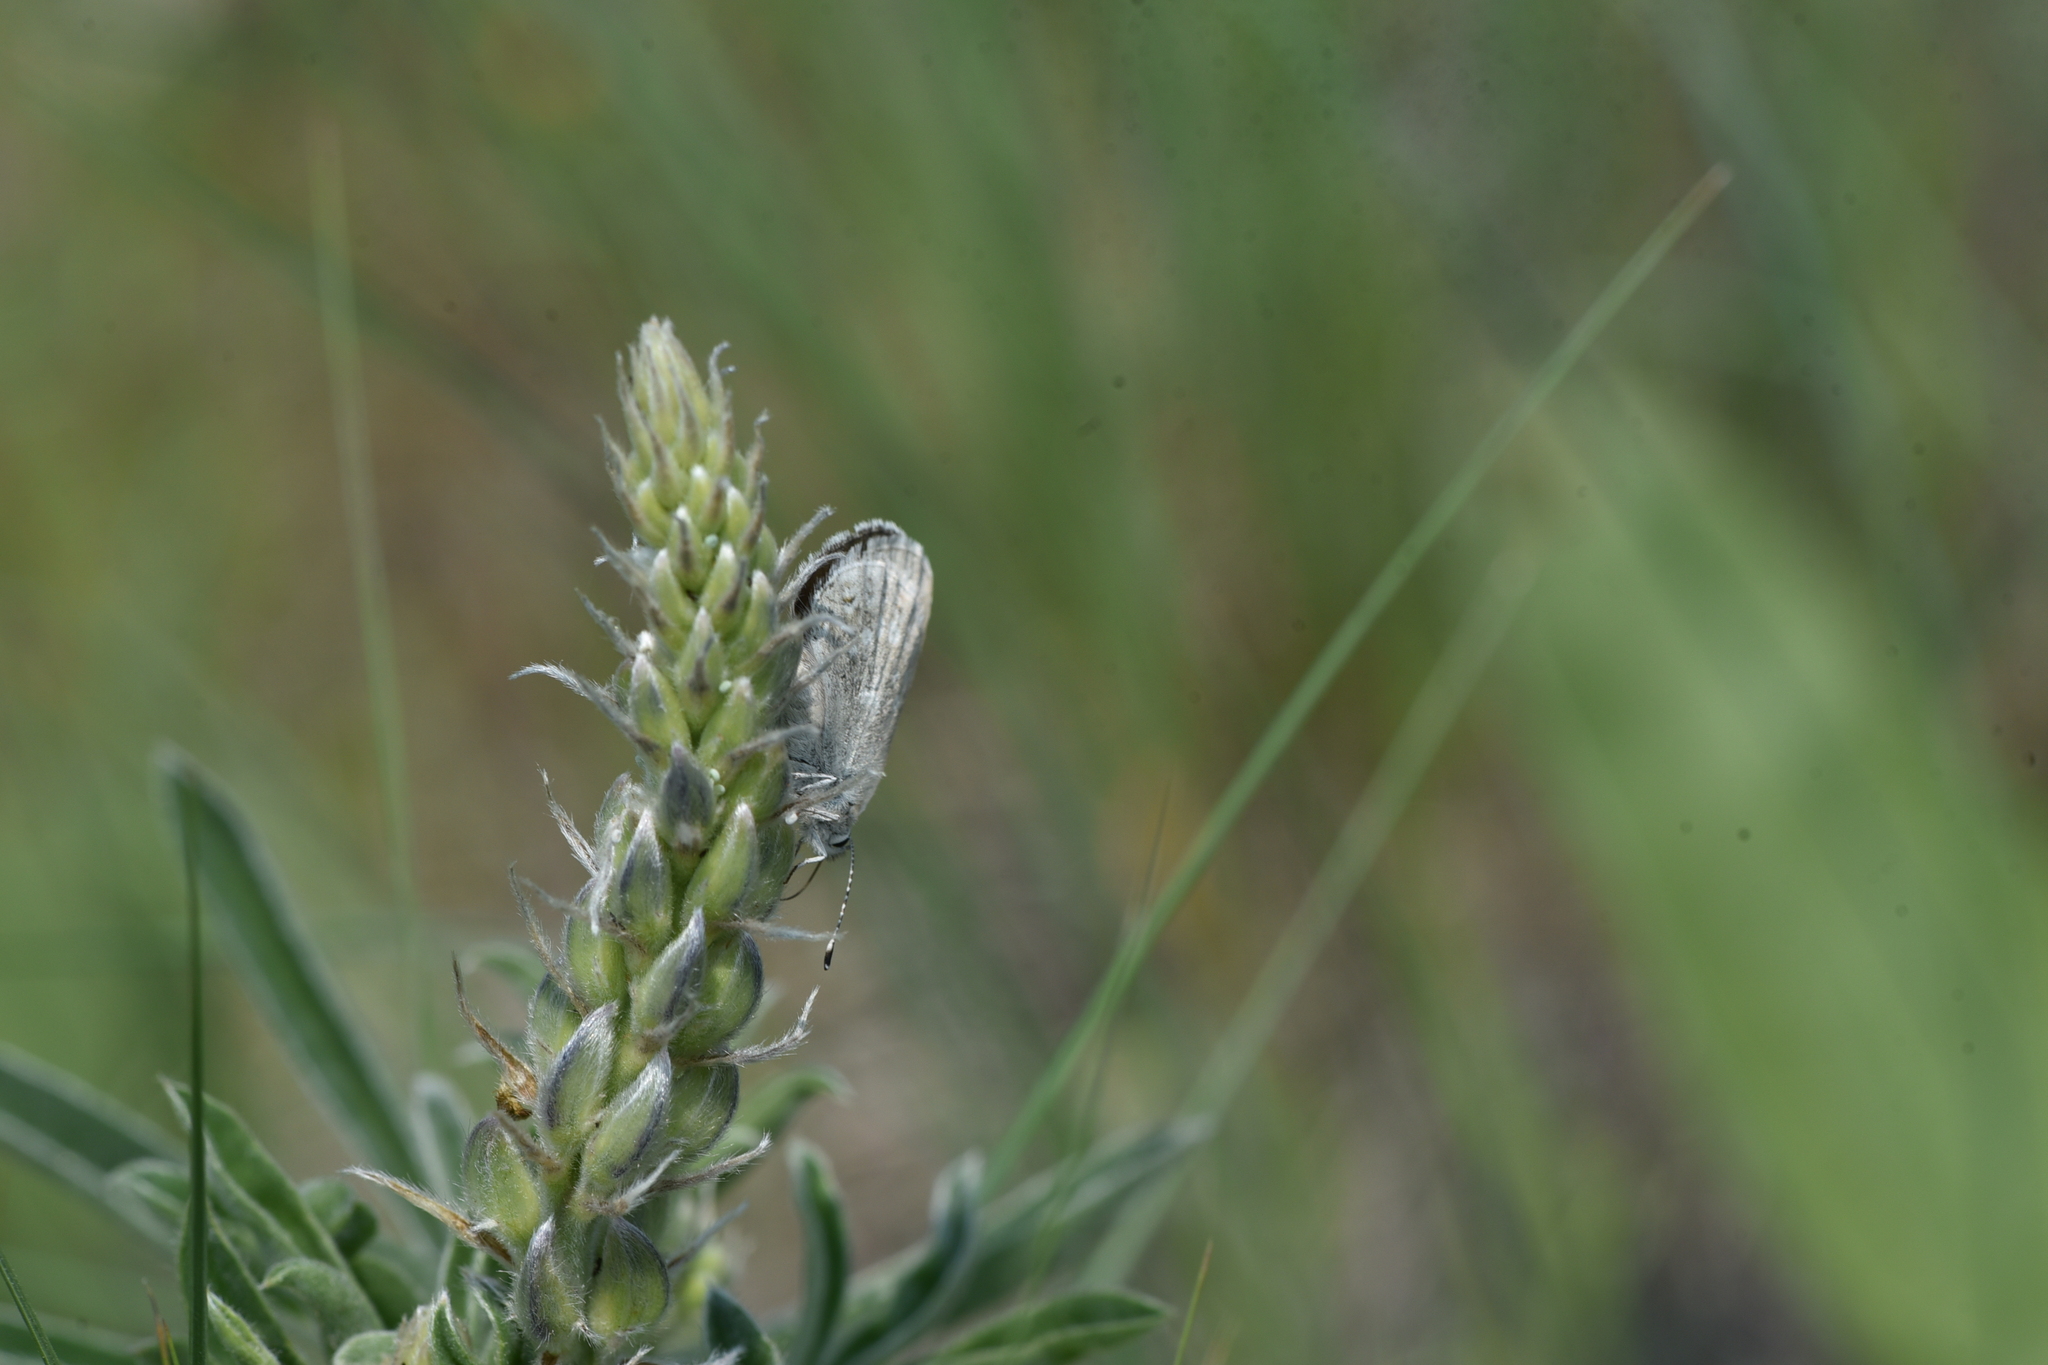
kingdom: Animalia
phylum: Arthropoda
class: Insecta
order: Lepidoptera
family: Lycaenidae
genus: Icaricia
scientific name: Icaricia icarioides
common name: Boisduval's blue
